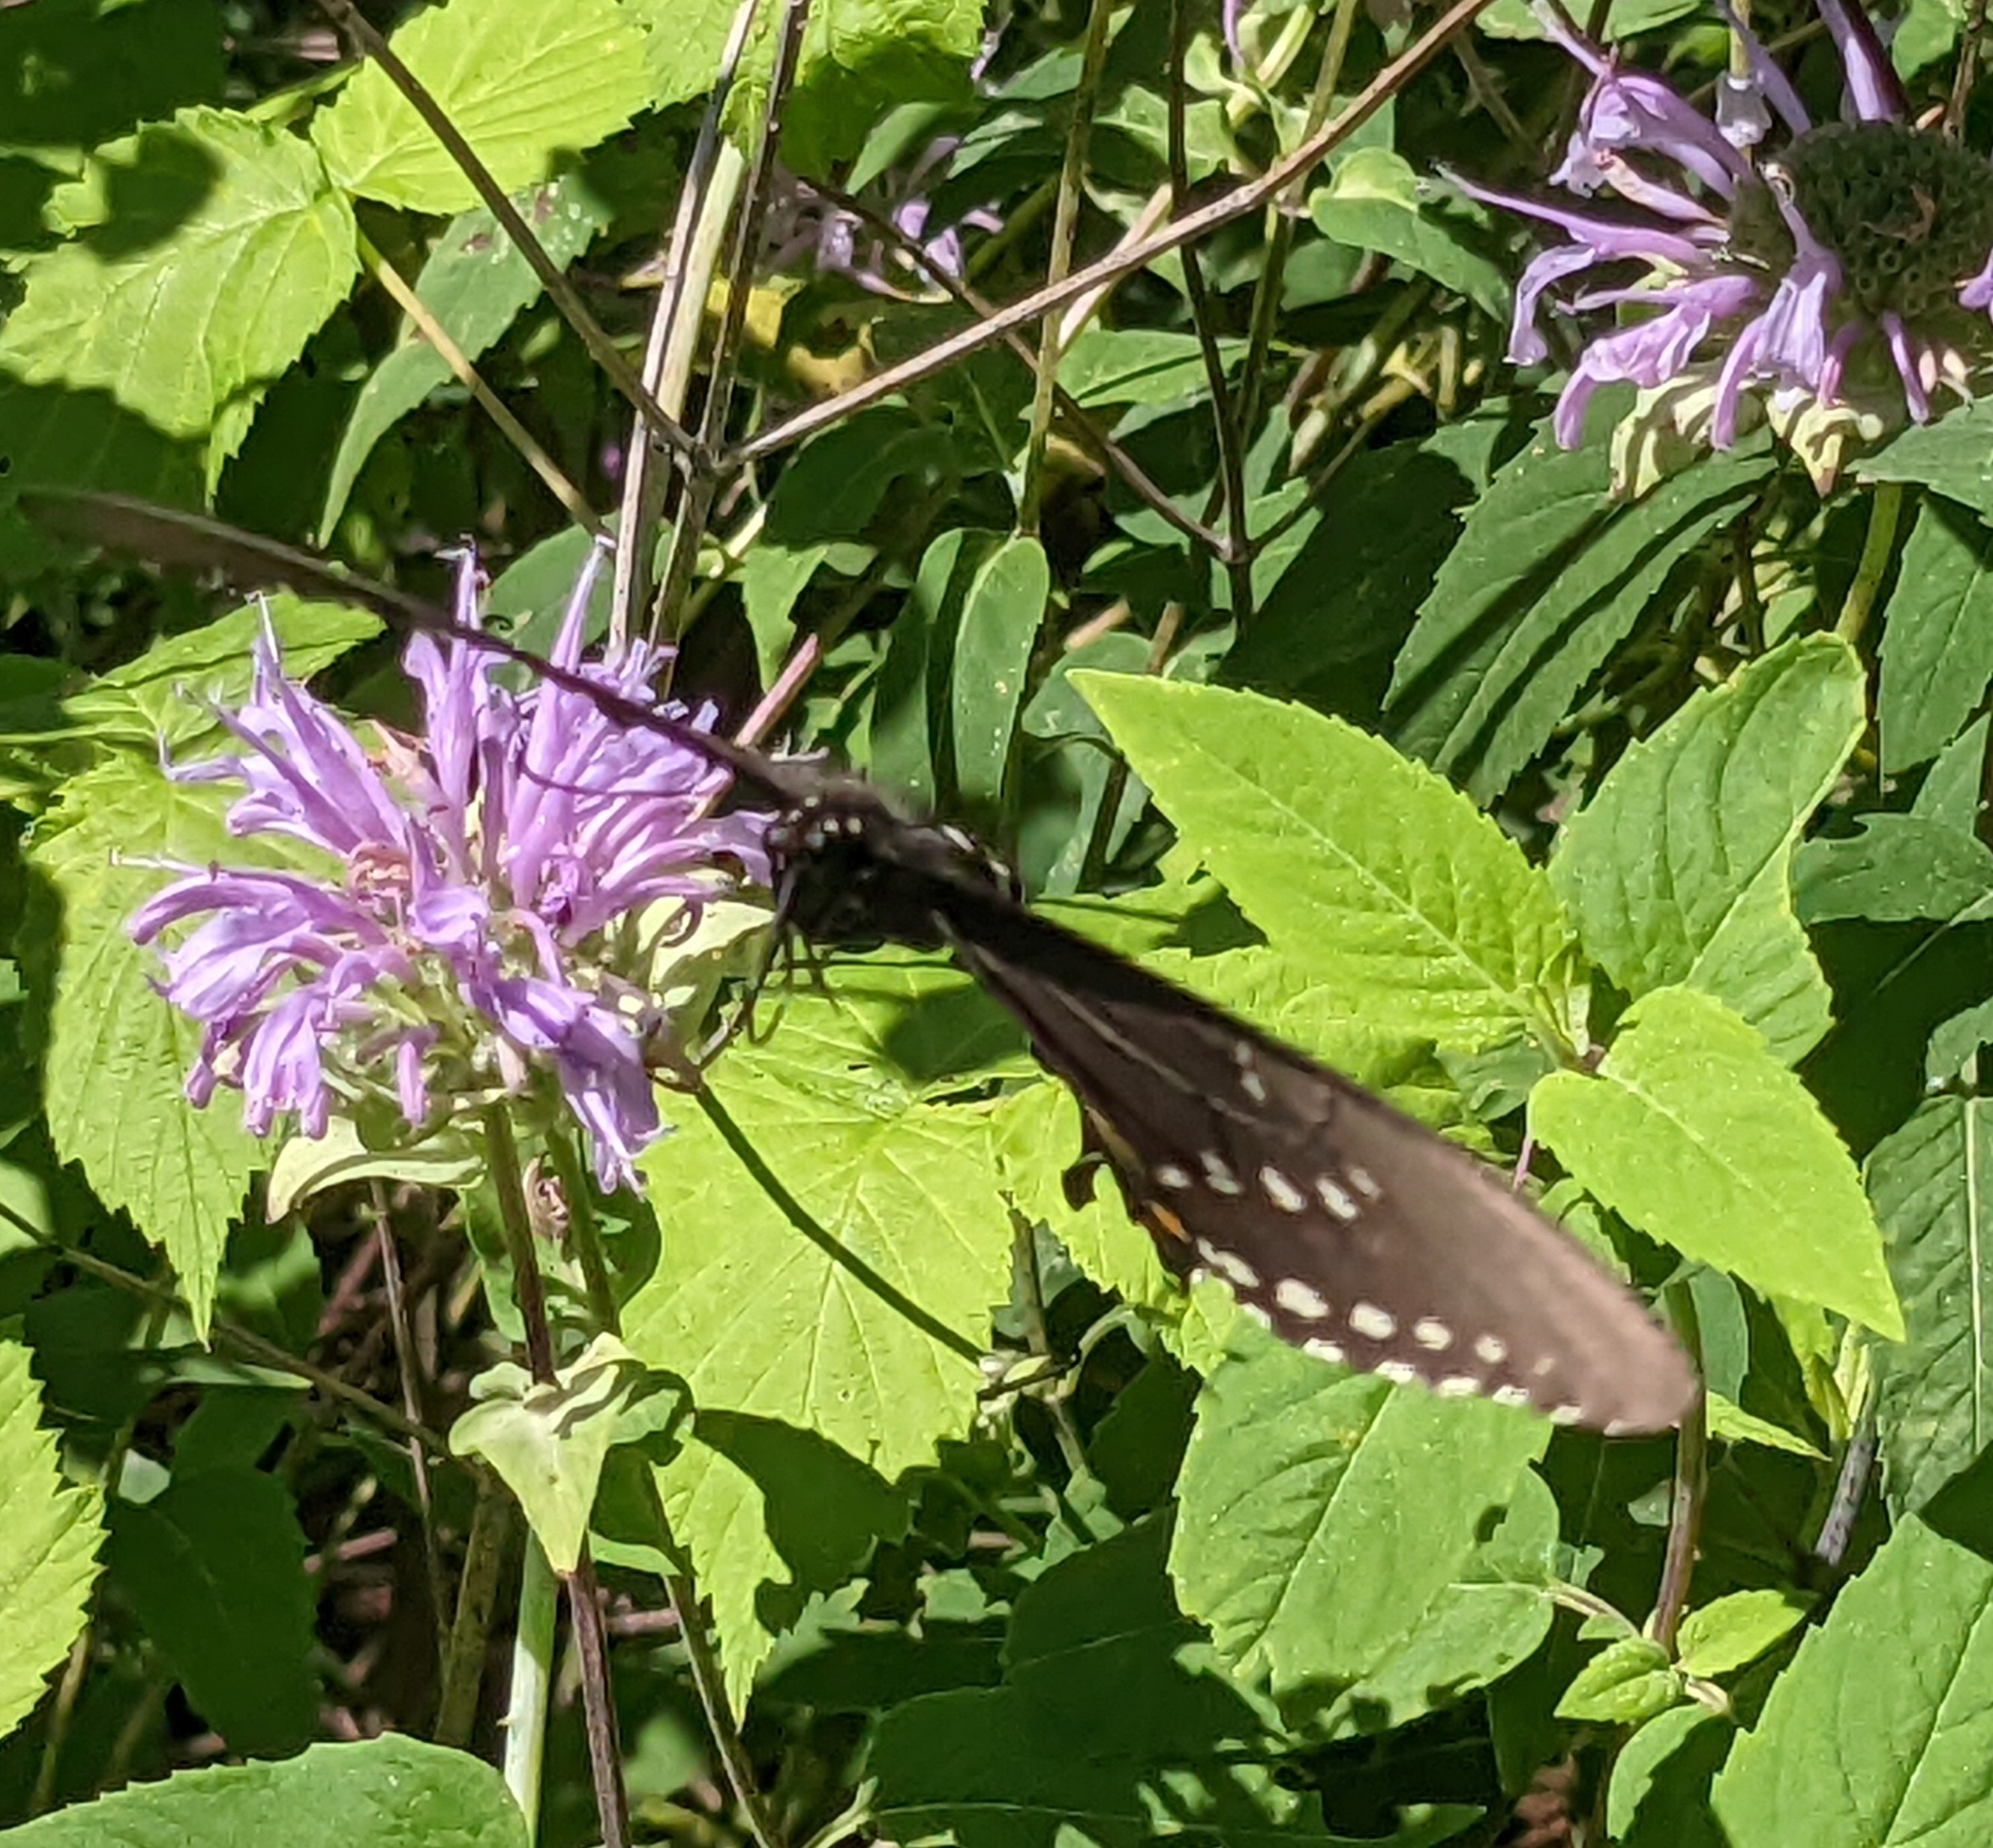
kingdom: Animalia
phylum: Arthropoda
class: Insecta
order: Lepidoptera
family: Papilionidae
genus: Papilio
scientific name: Papilio troilus
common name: Spicebush swallowtail
